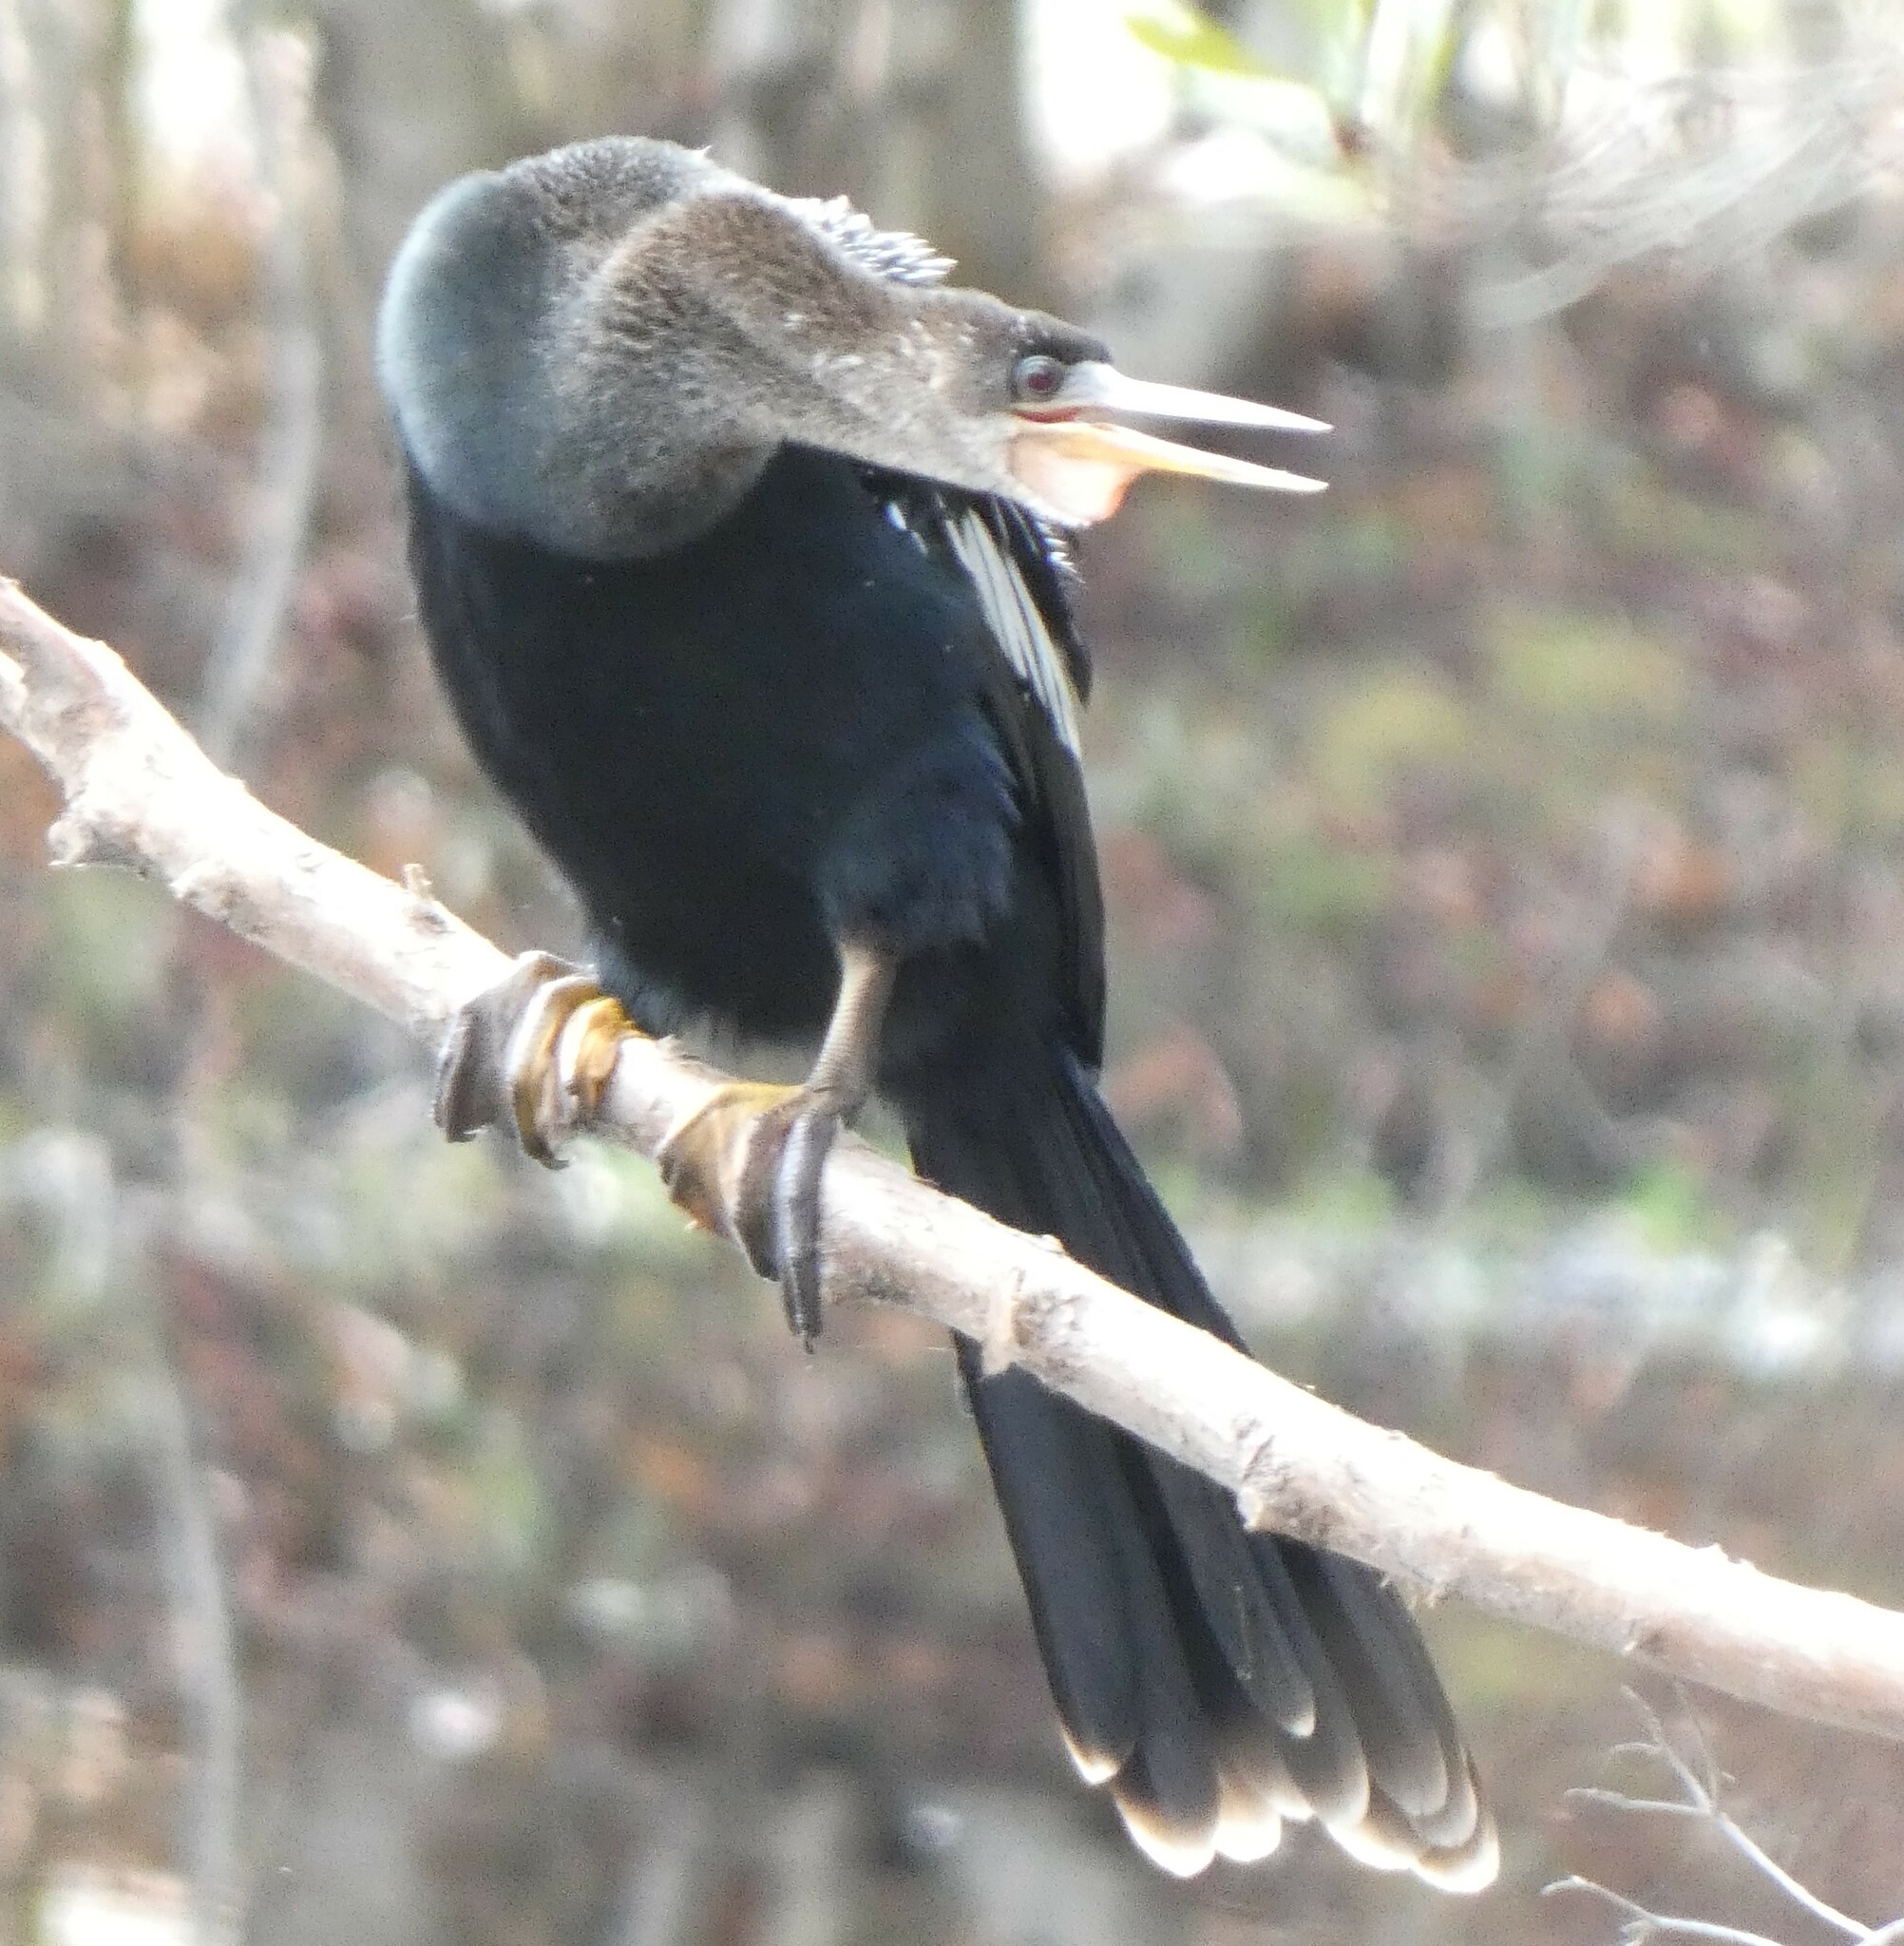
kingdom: Animalia
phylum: Chordata
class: Aves
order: Suliformes
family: Anhingidae
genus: Anhinga
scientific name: Anhinga anhinga
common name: Anhinga
